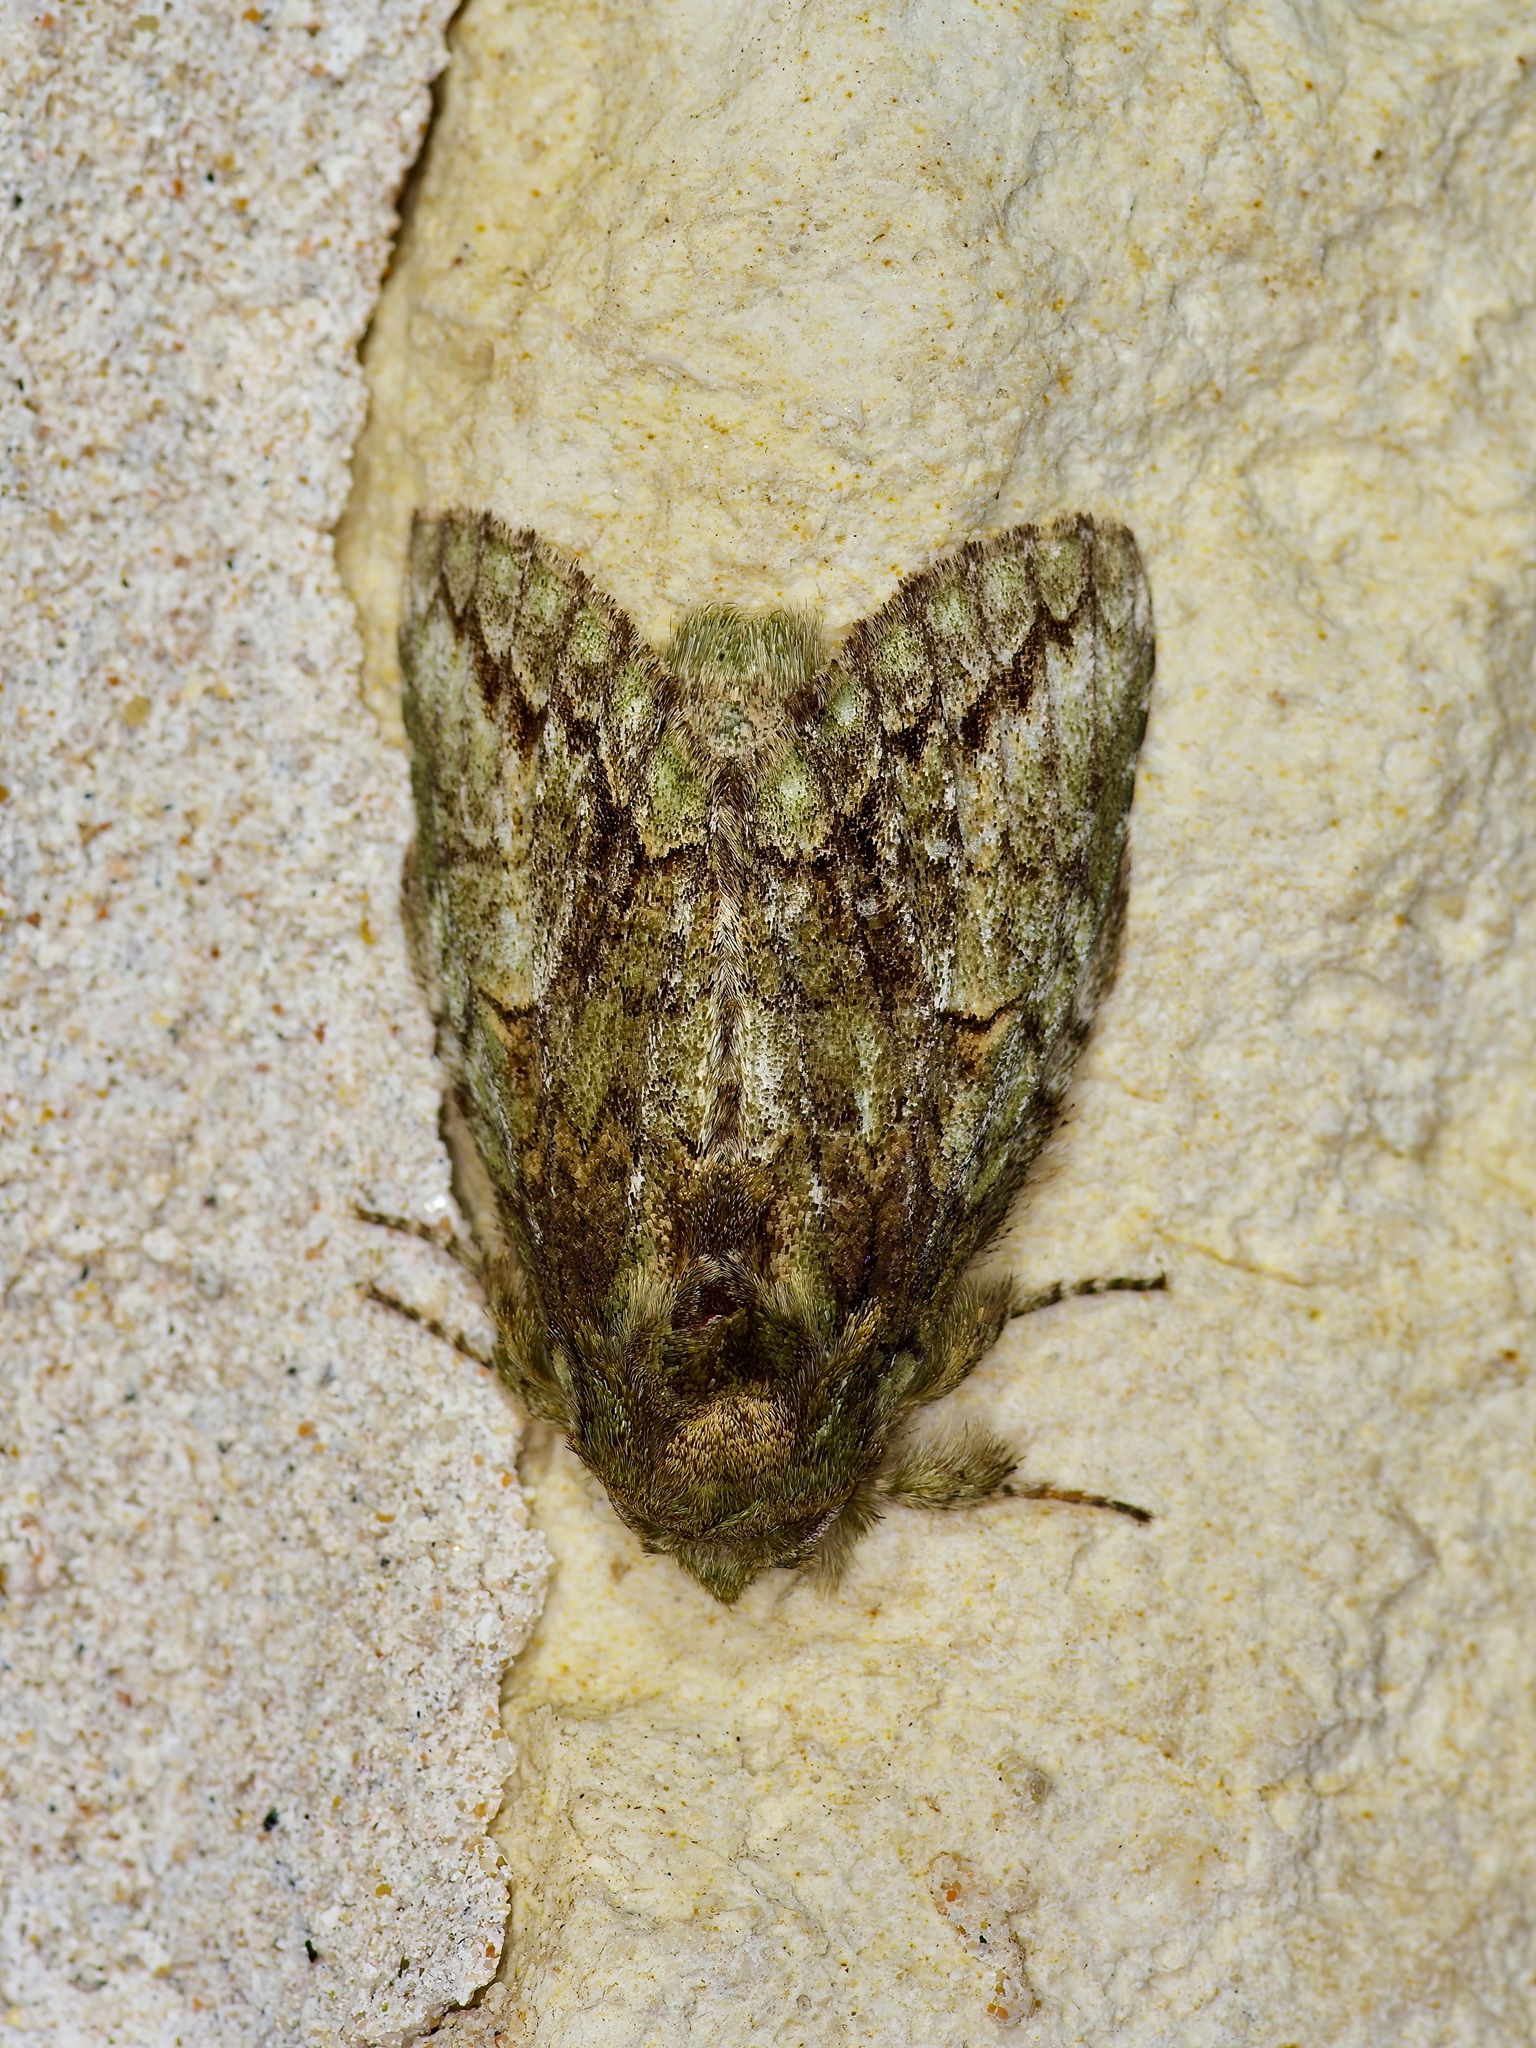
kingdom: Animalia
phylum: Arthropoda
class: Insecta
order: Lepidoptera
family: Notodontidae
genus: Heterocampa
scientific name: Heterocampa
